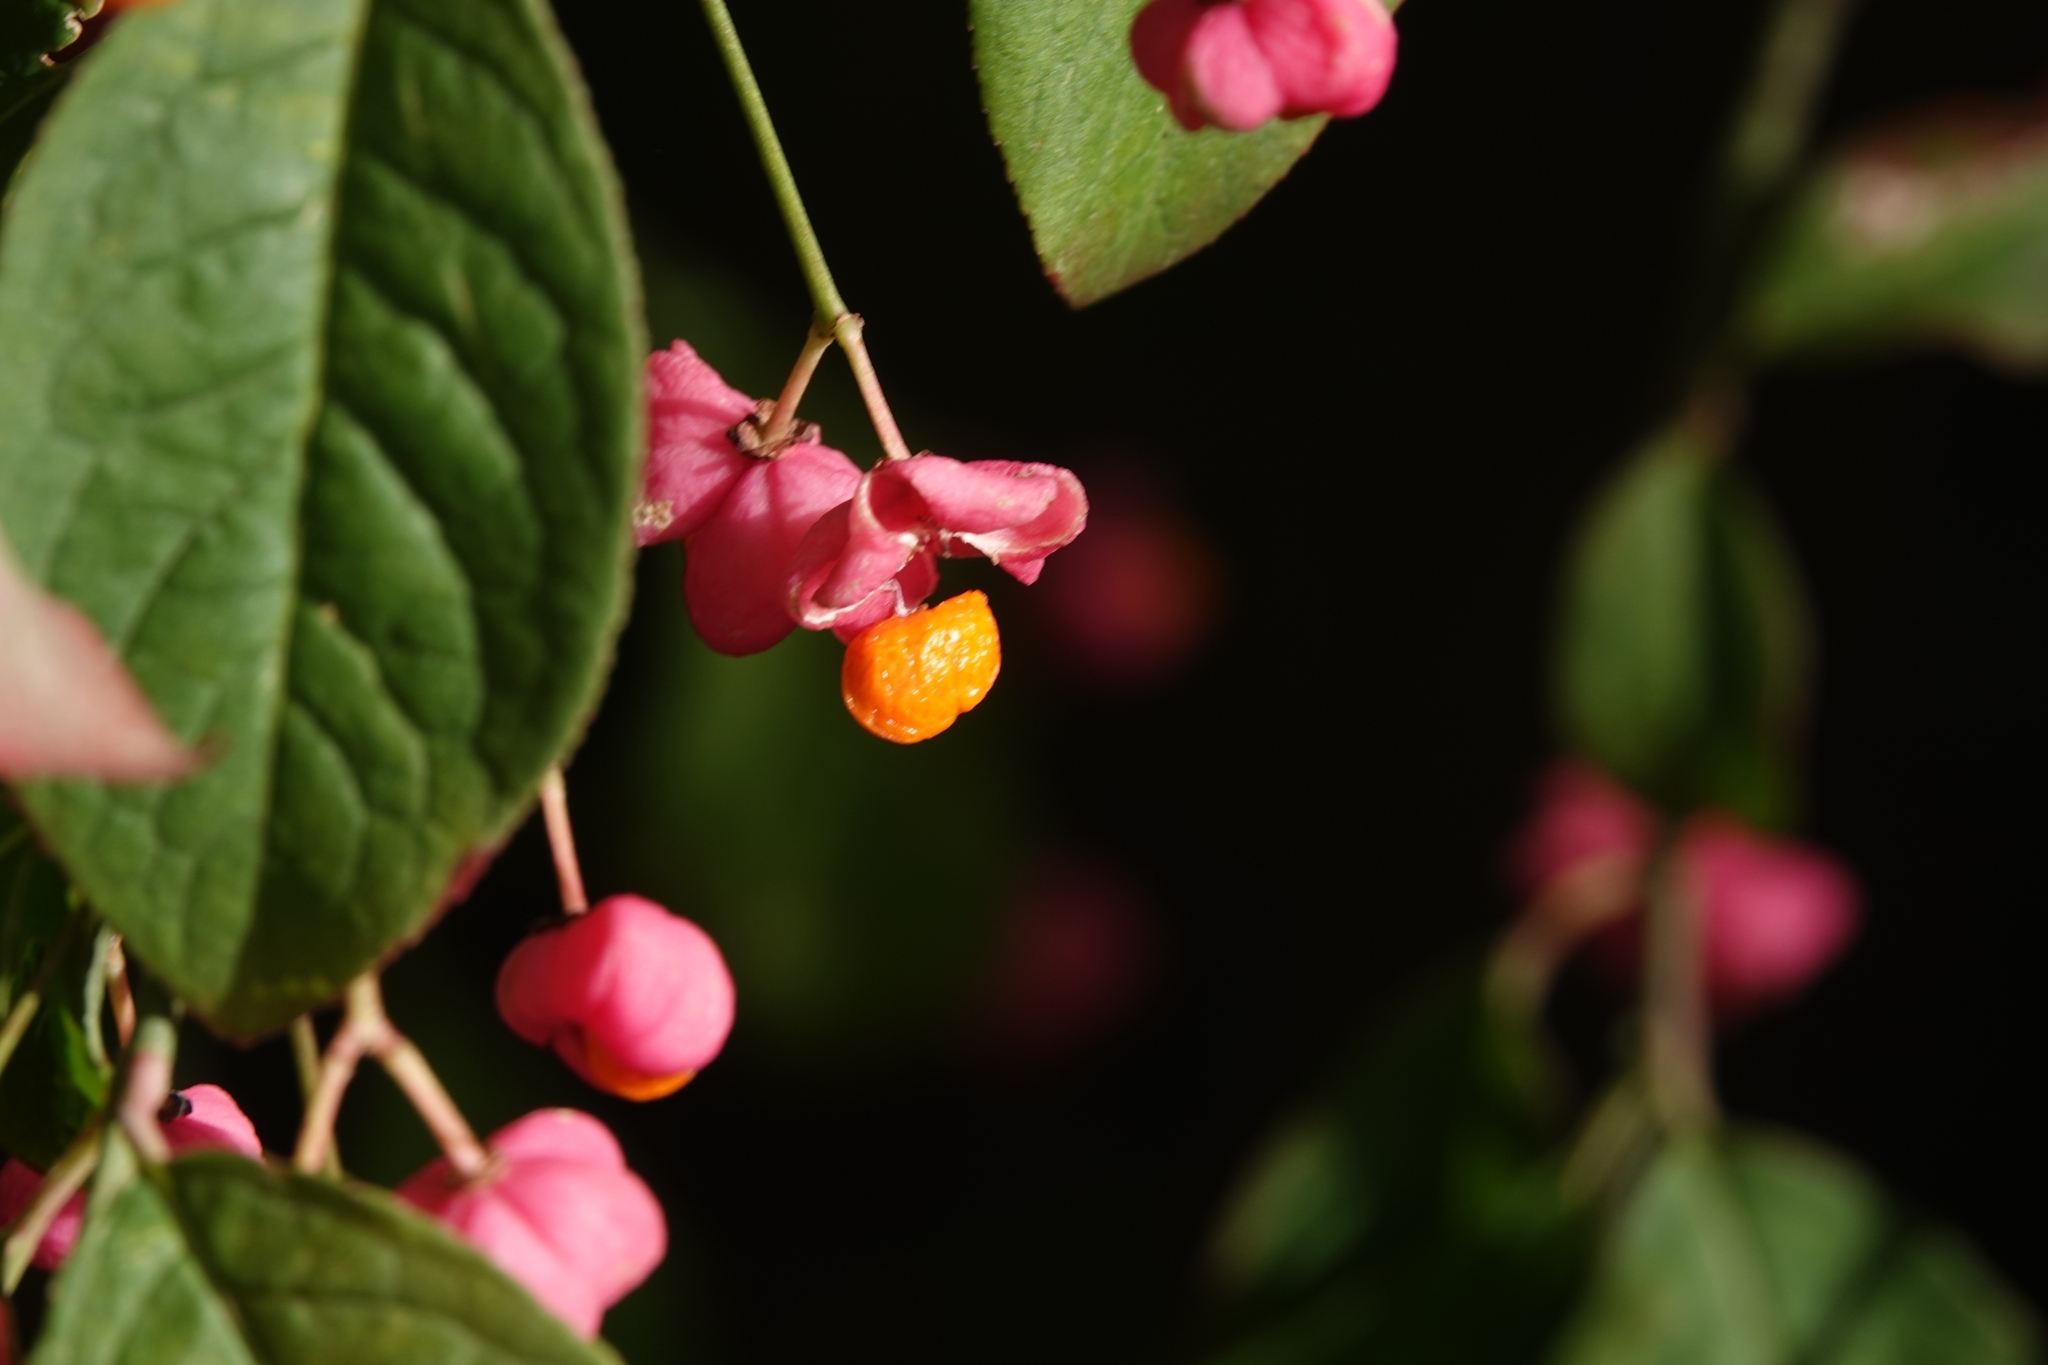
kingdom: Plantae
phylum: Tracheophyta
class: Magnoliopsida
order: Celastrales
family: Celastraceae
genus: Euonymus
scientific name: Euonymus europaeus
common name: Spindle
